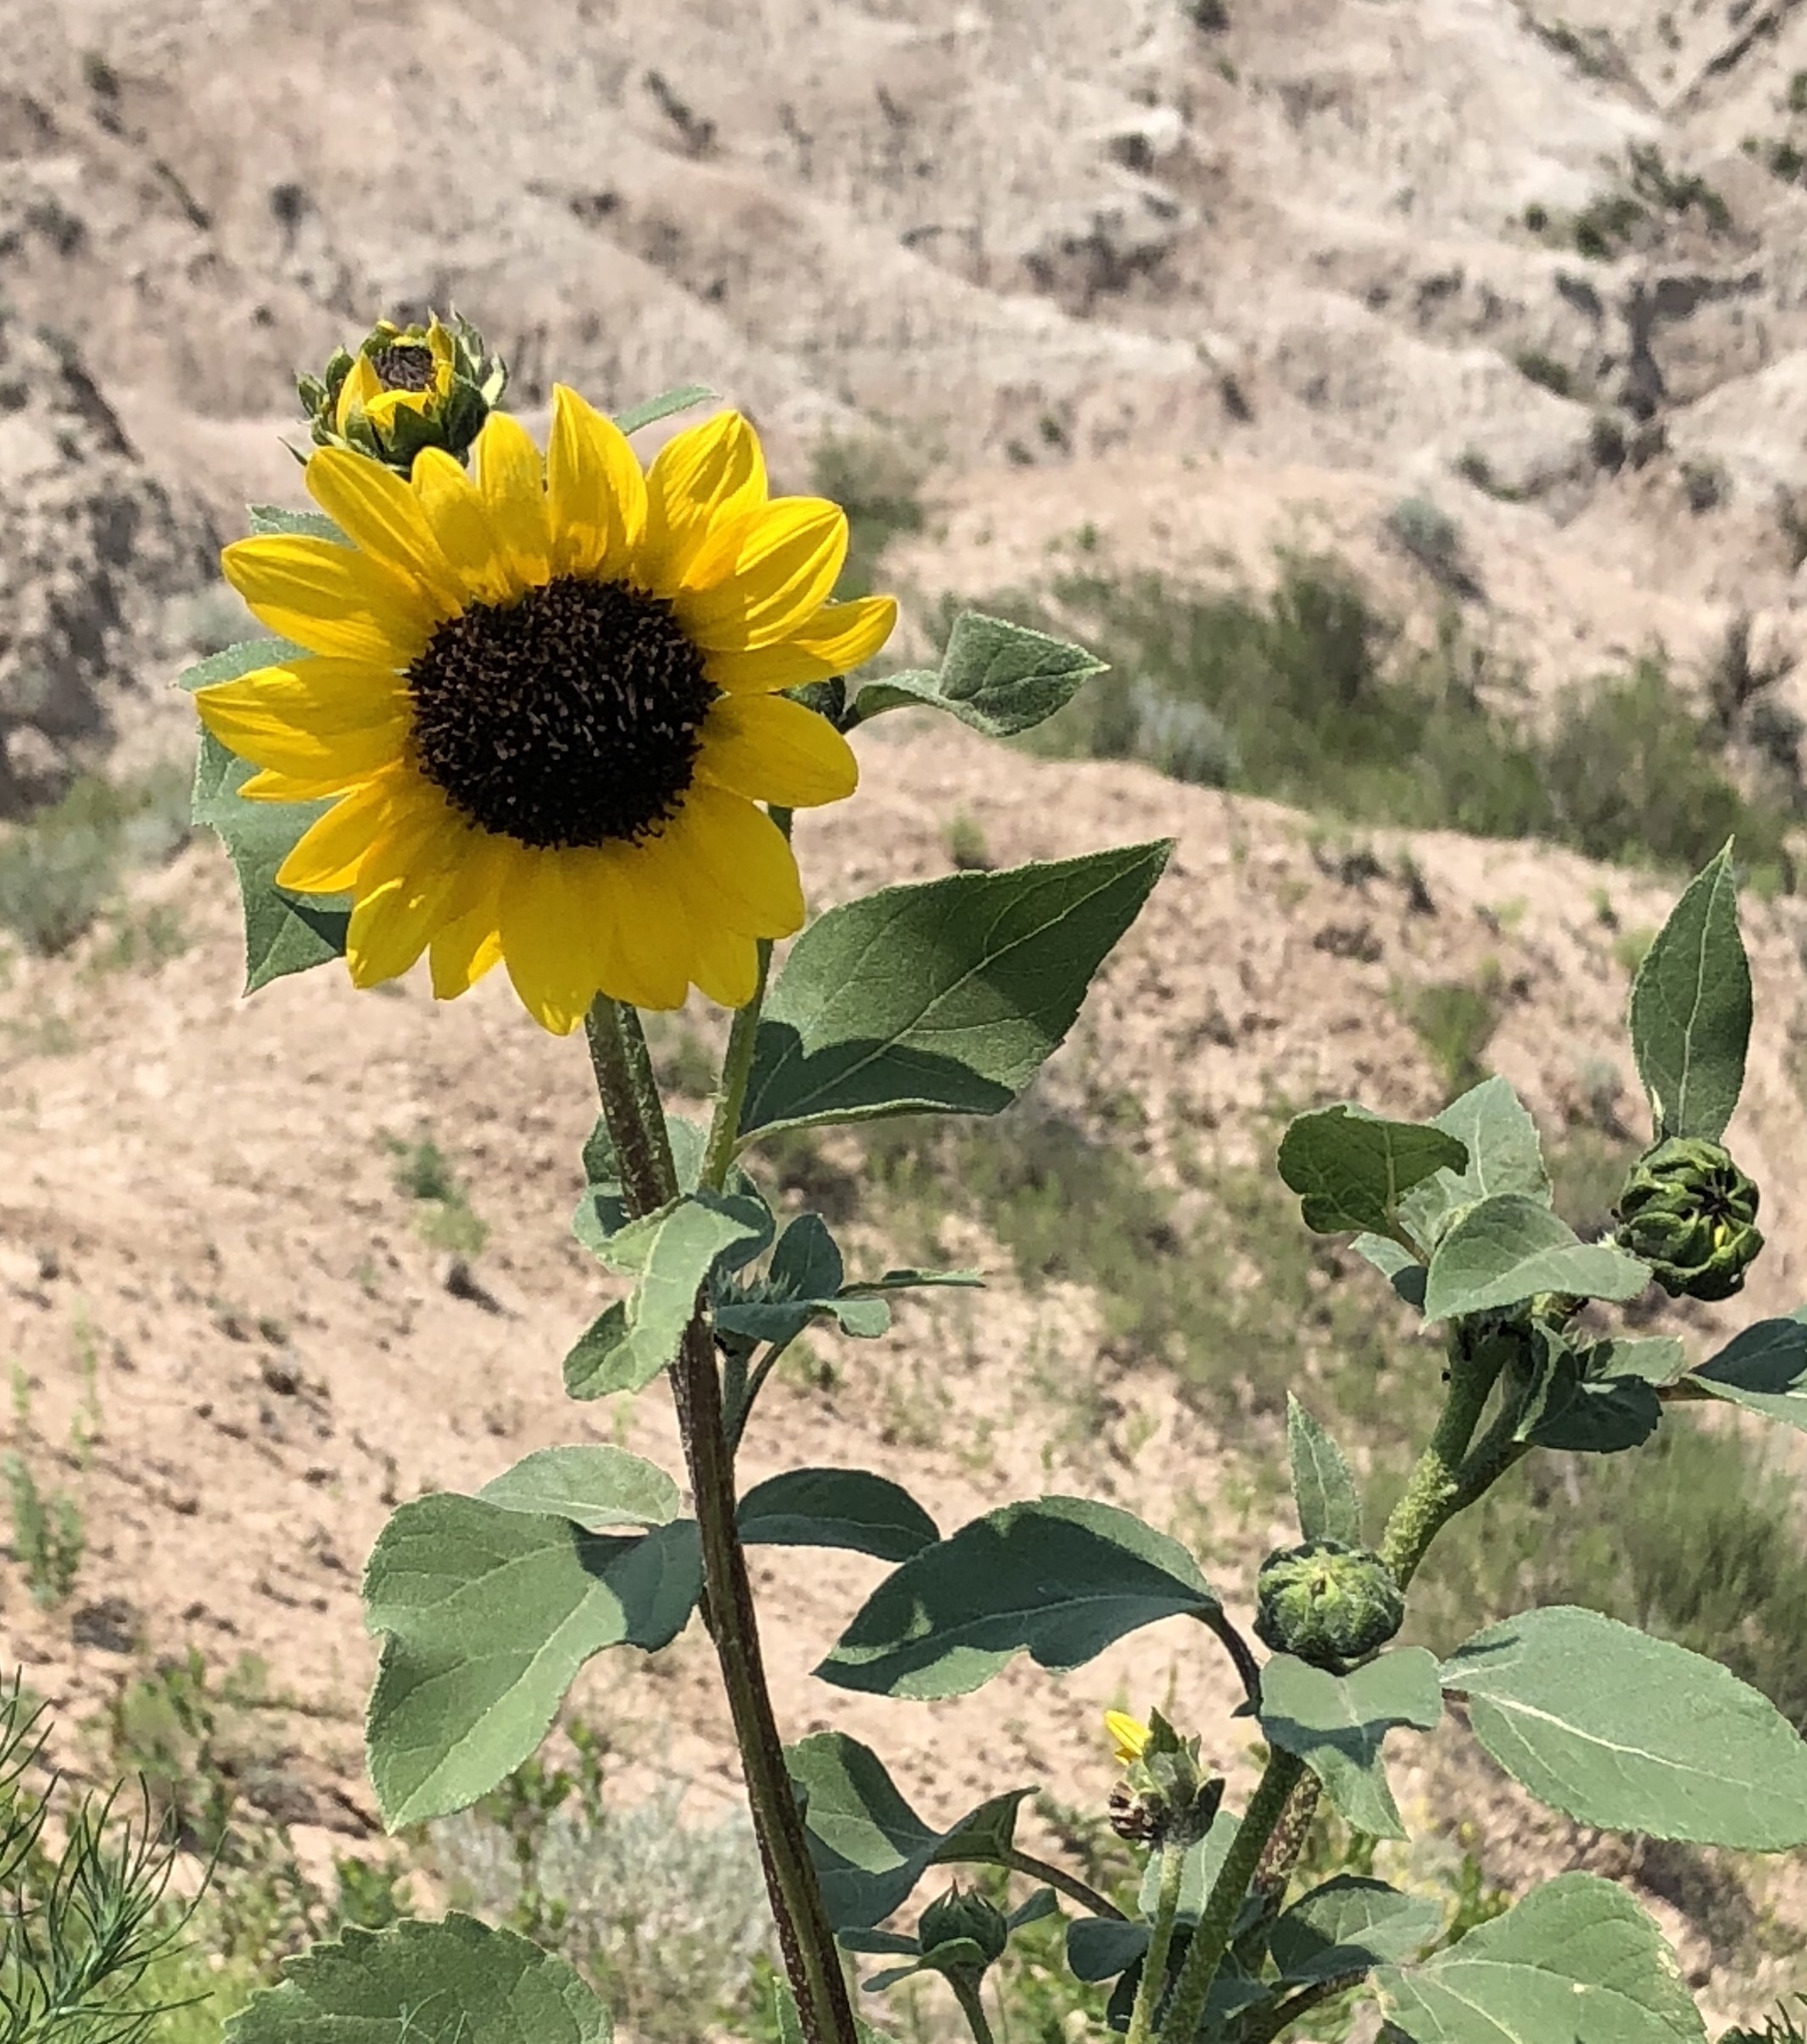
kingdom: Plantae
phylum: Tracheophyta
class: Magnoliopsida
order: Asterales
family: Asteraceae
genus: Helianthus
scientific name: Helianthus annuus
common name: Sunflower
